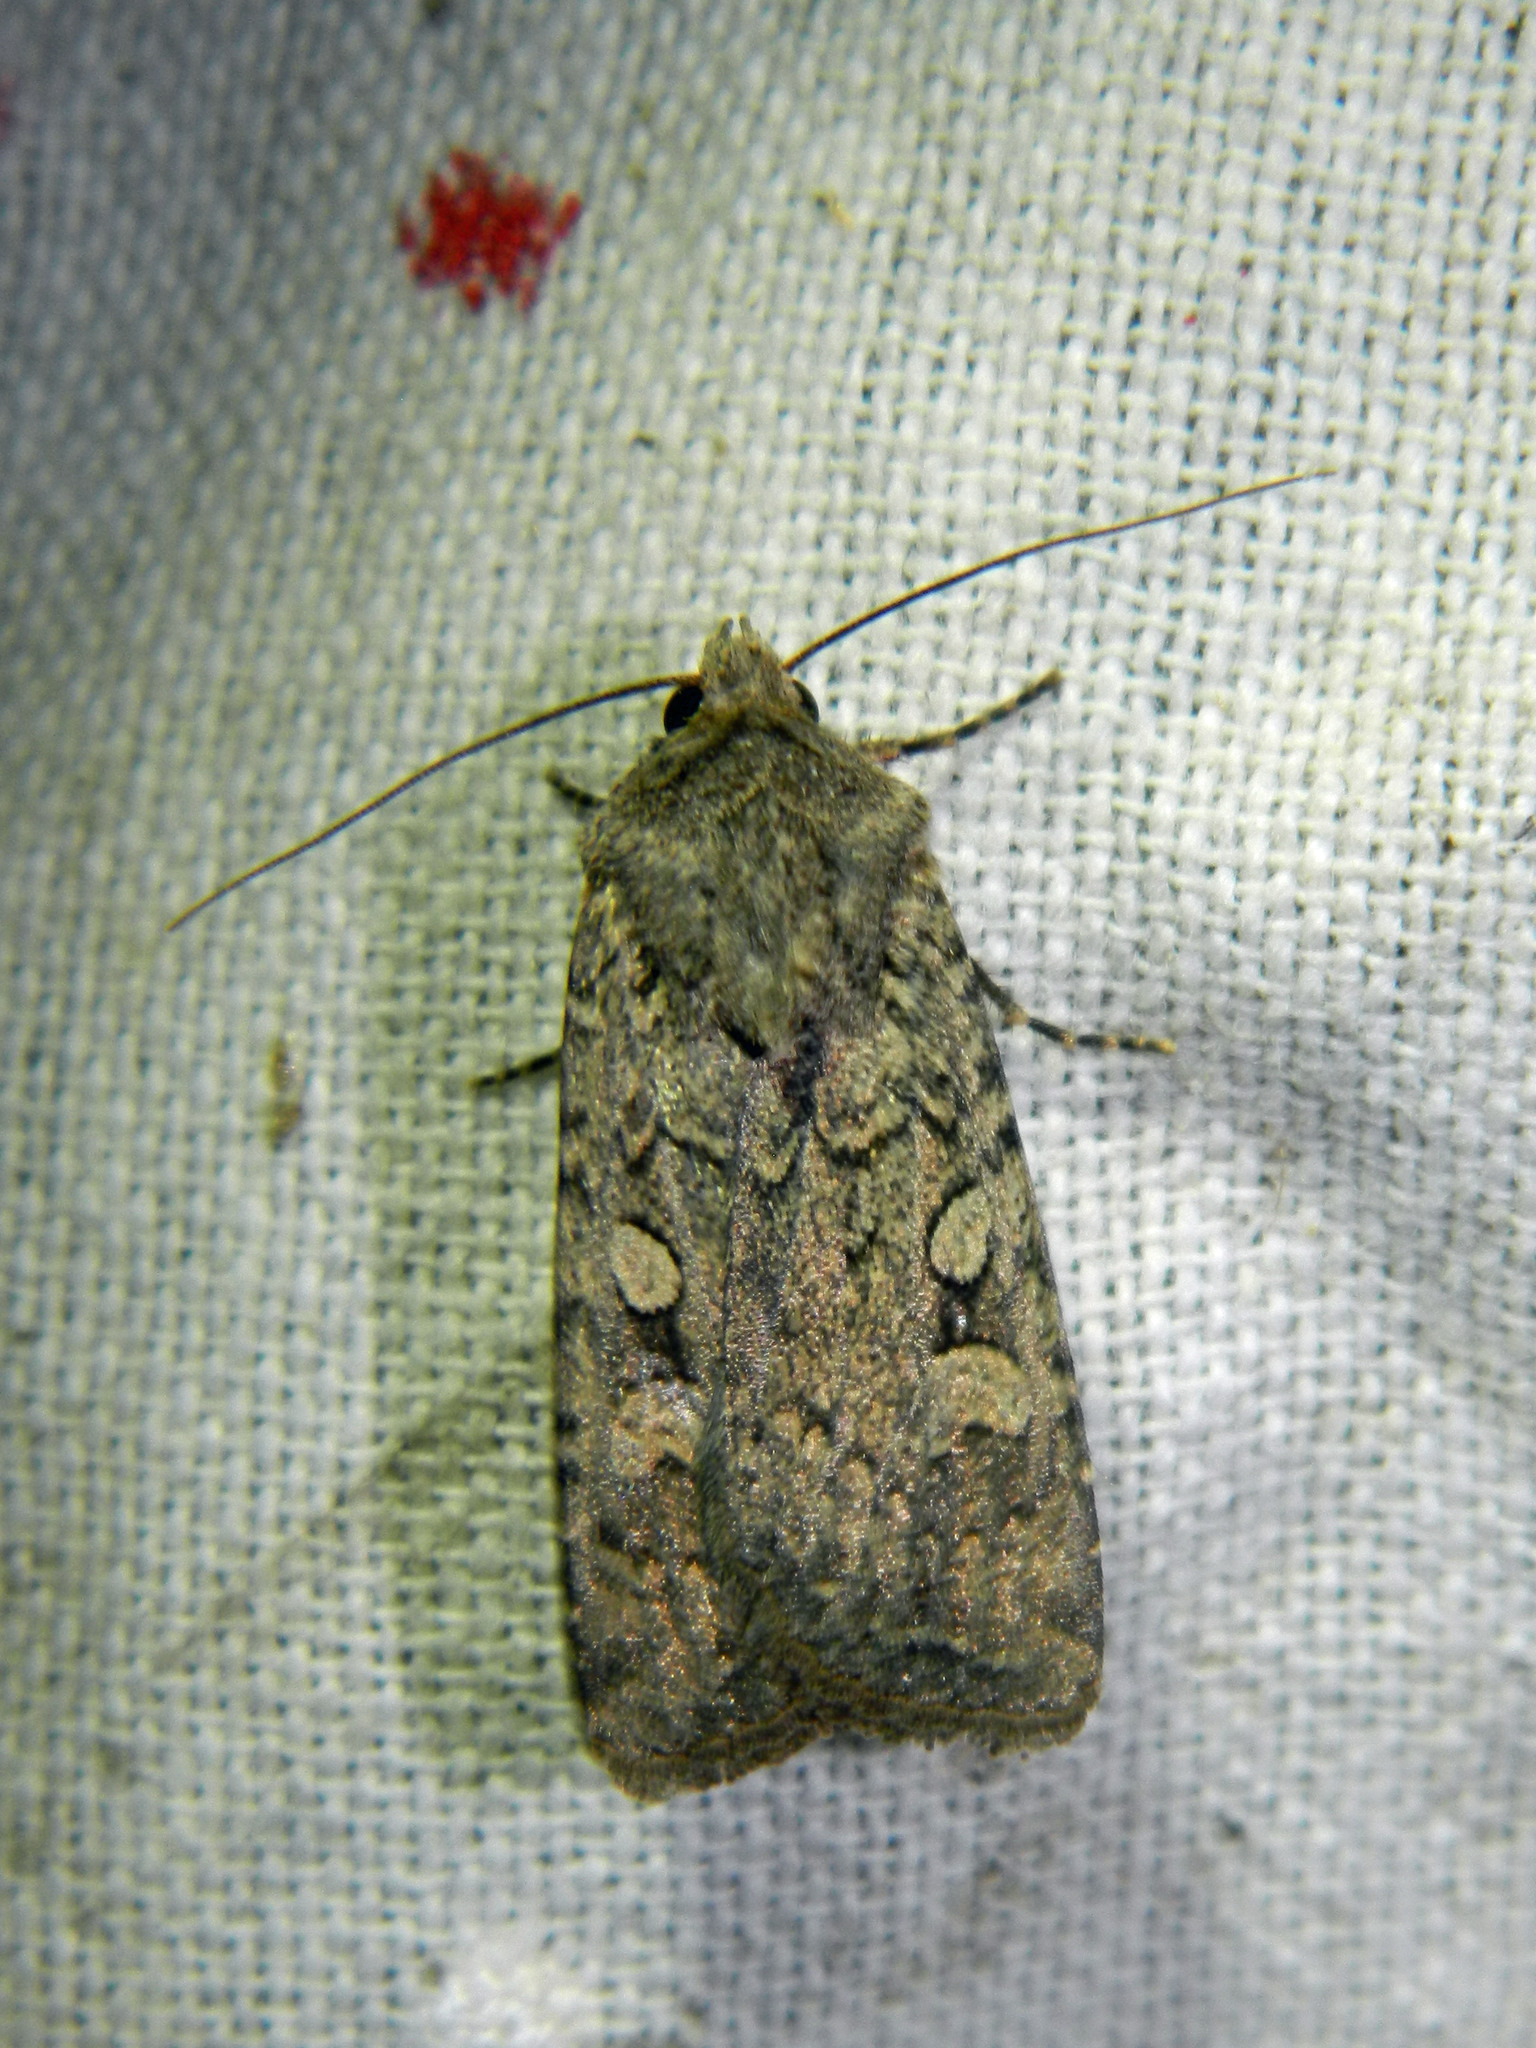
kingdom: Animalia
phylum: Arthropoda
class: Insecta
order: Lepidoptera
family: Noctuidae
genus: Euxoa
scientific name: Euxoa messoria
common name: Darksided cutworm
